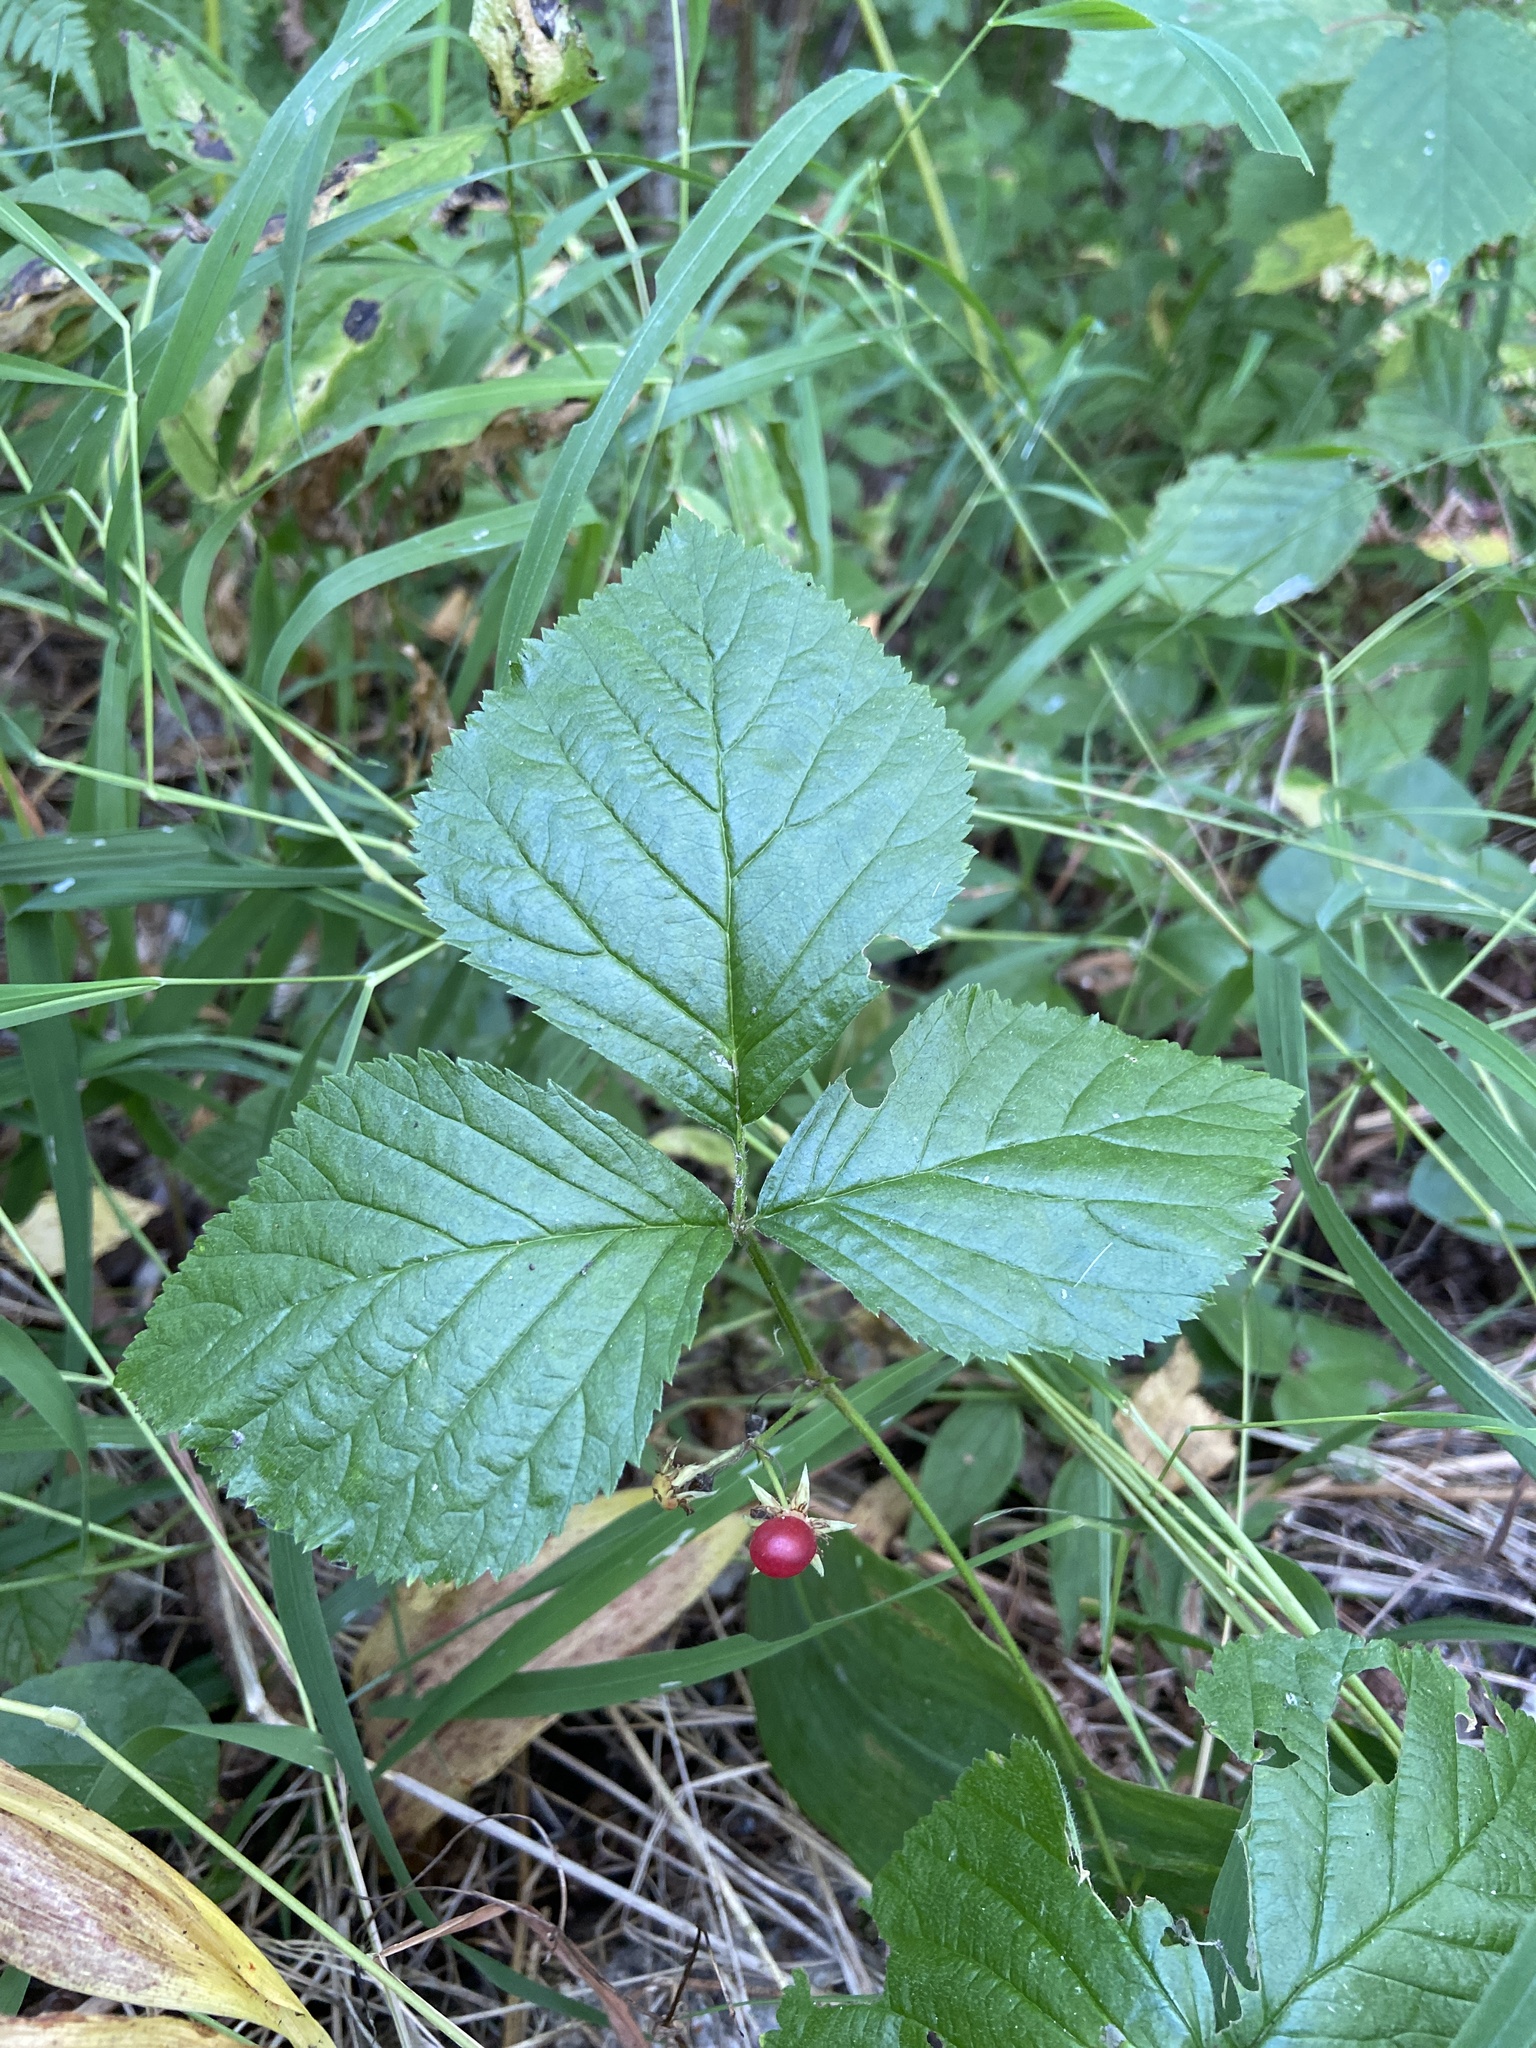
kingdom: Plantae
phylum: Tracheophyta
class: Magnoliopsida
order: Rosales
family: Rosaceae
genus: Rubus
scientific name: Rubus saxatilis
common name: Stone bramble
